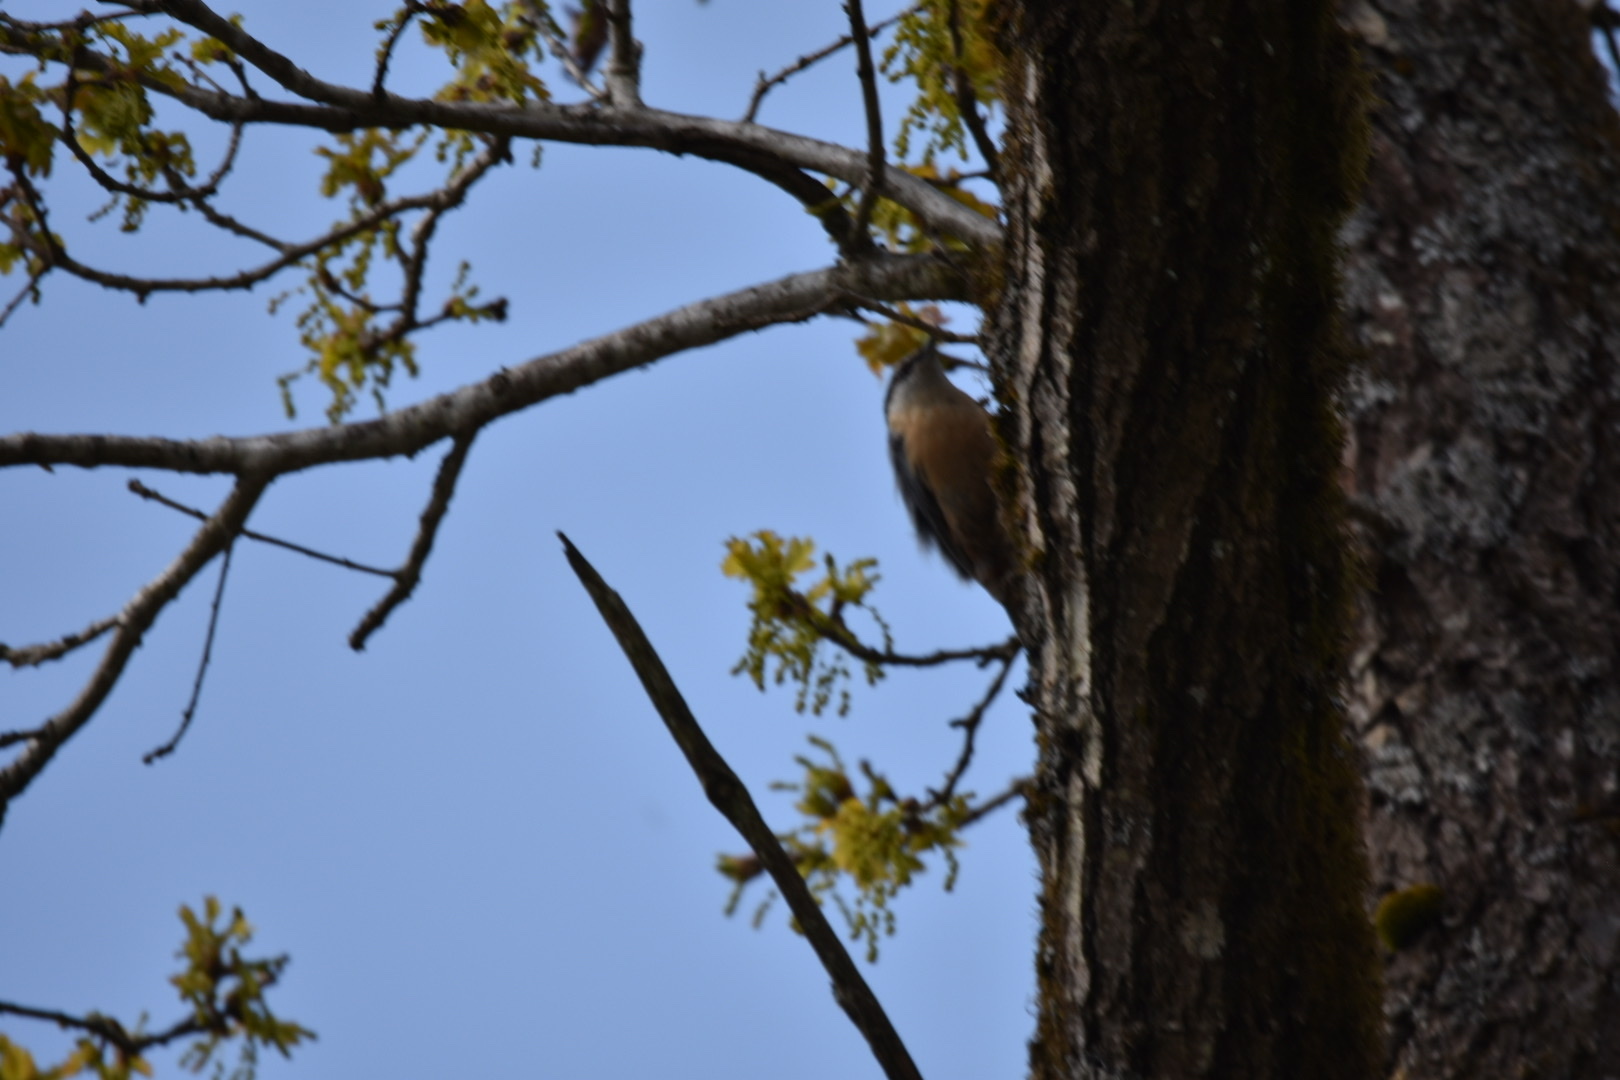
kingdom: Animalia
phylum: Chordata
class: Aves
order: Passeriformes
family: Sittidae
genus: Sitta
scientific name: Sitta europaea
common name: Eurasian nuthatch
